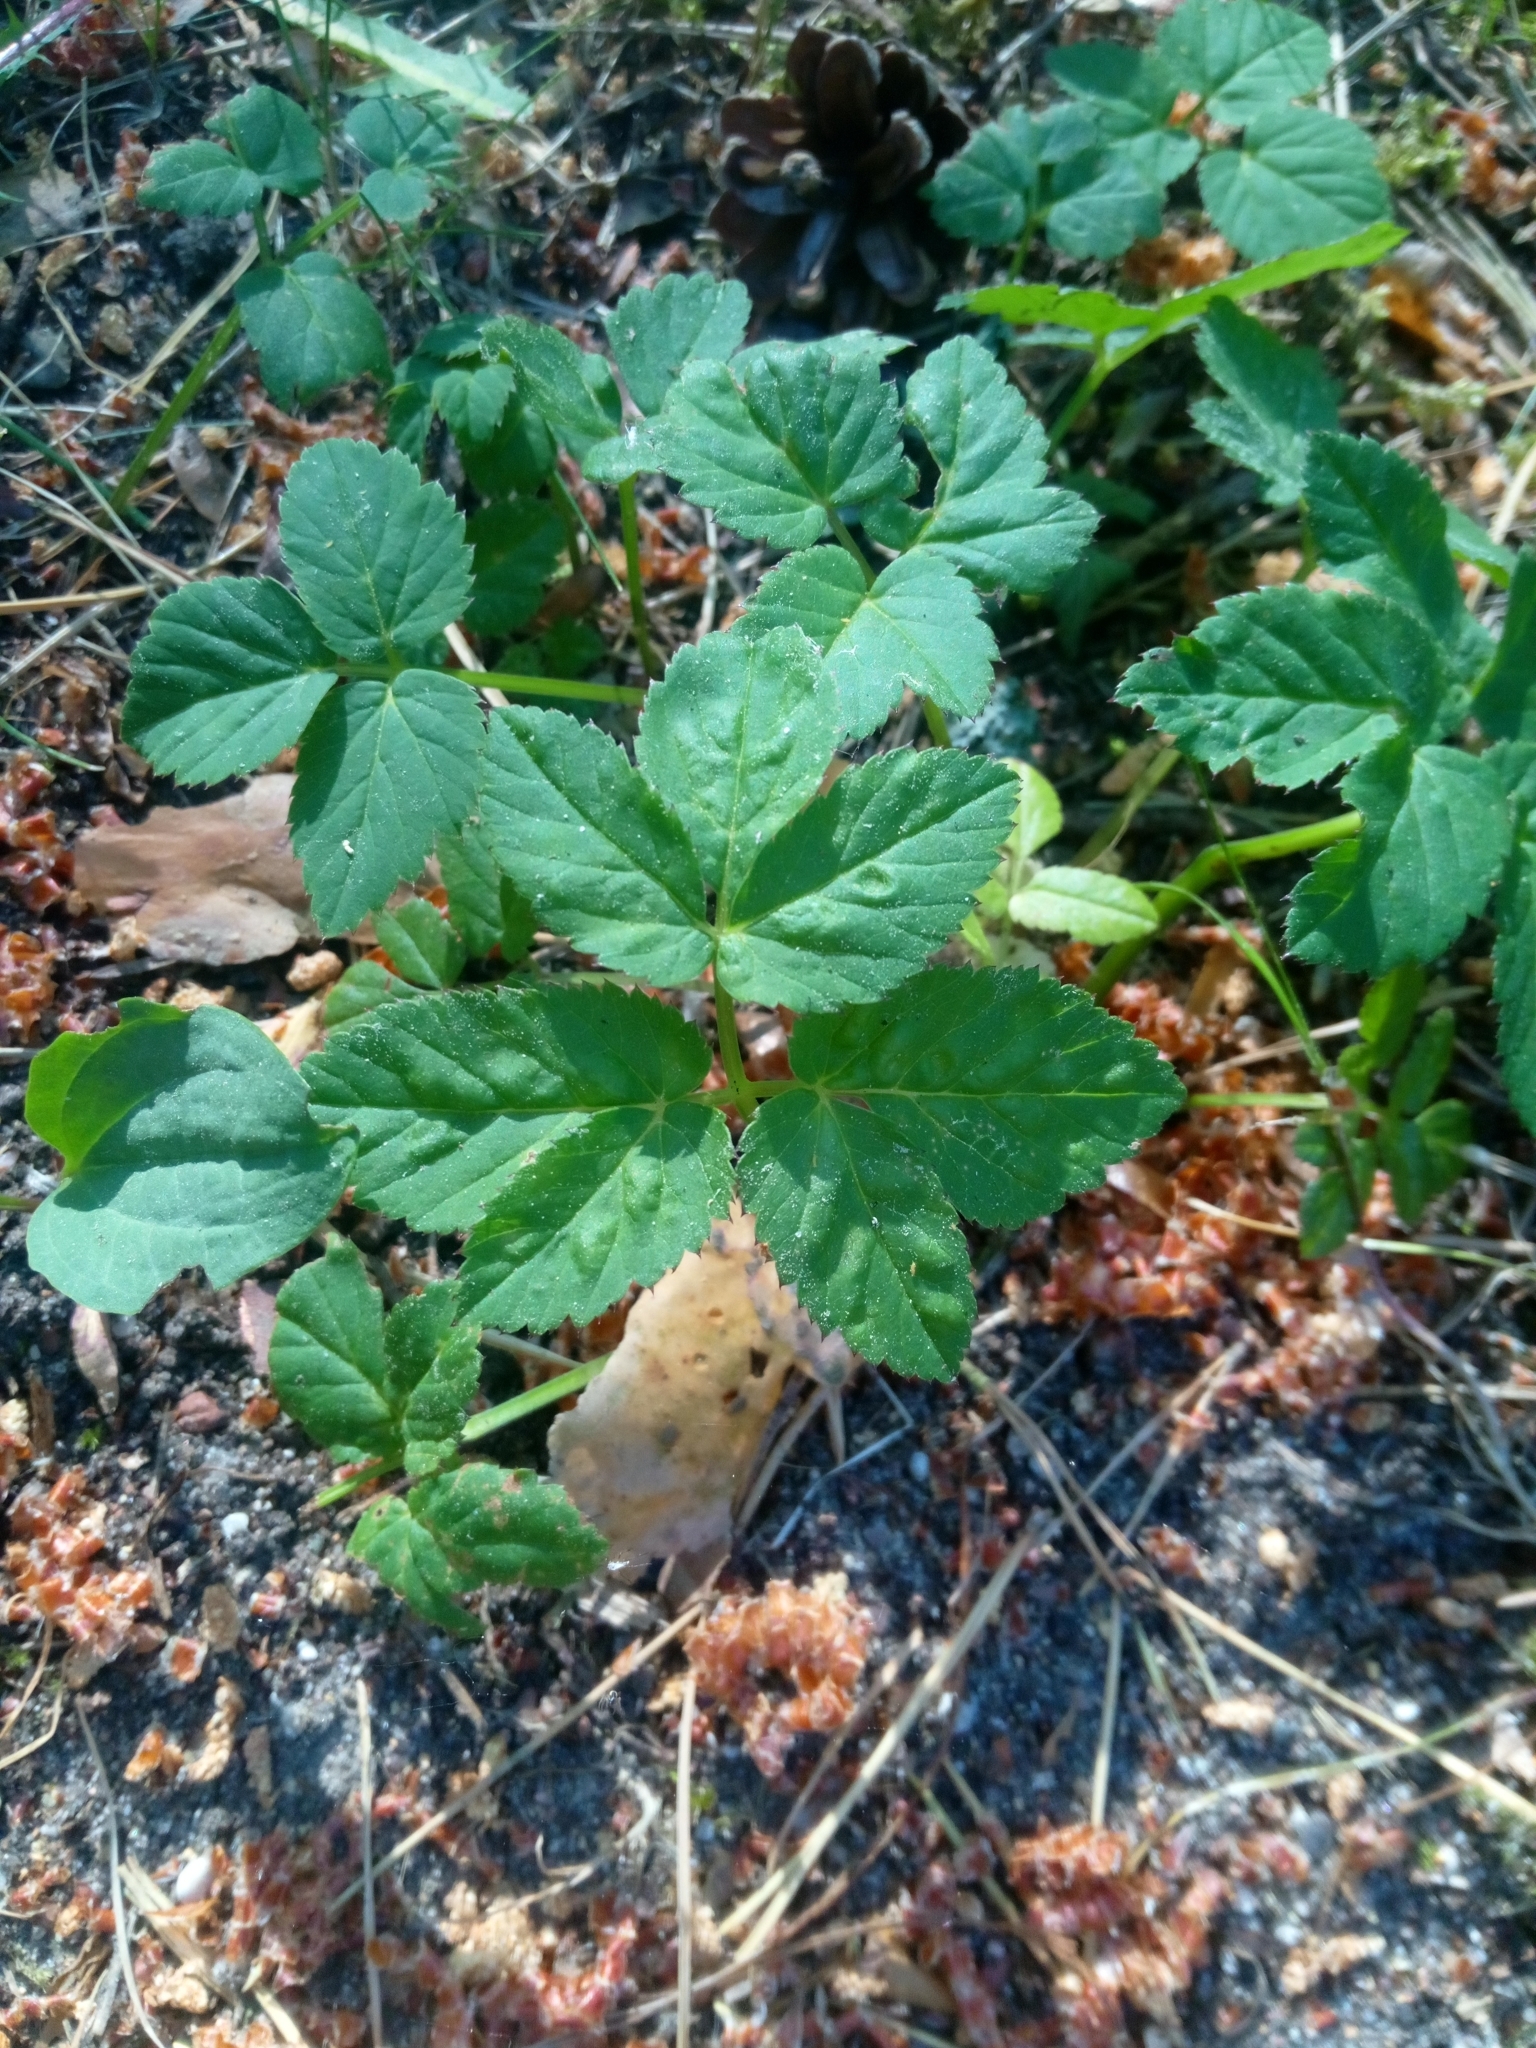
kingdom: Animalia
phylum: Arthropoda
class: Insecta
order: Hemiptera
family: Triozidae
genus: Trioza
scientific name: Trioza flavipennis
